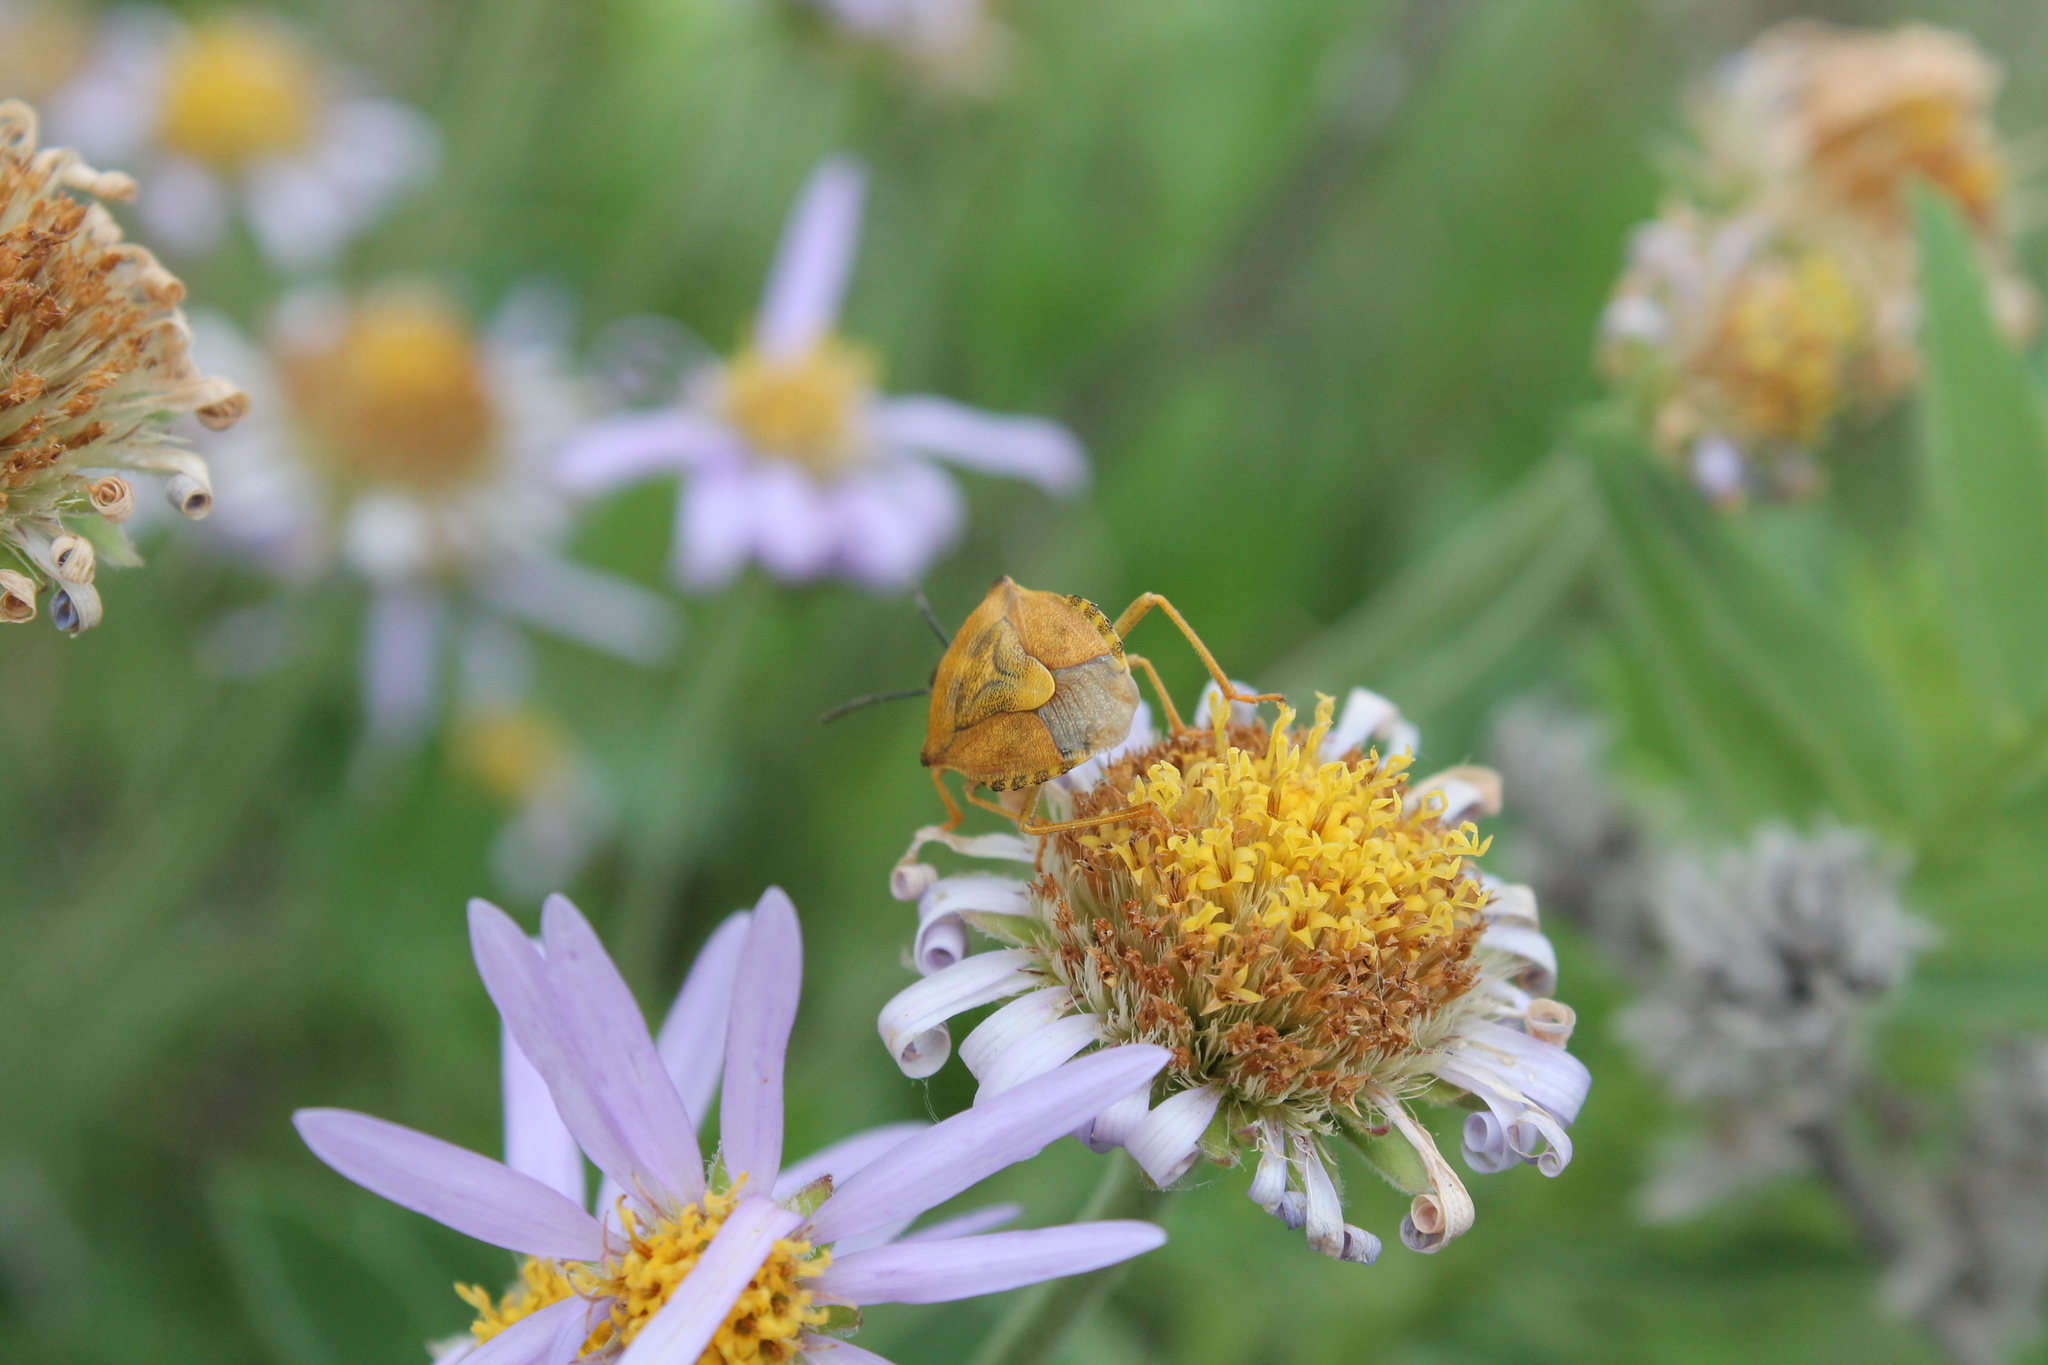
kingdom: Animalia
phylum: Arthropoda
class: Insecta
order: Hemiptera
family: Pentatomidae
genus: Carpocoris
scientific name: Carpocoris purpureipennis
